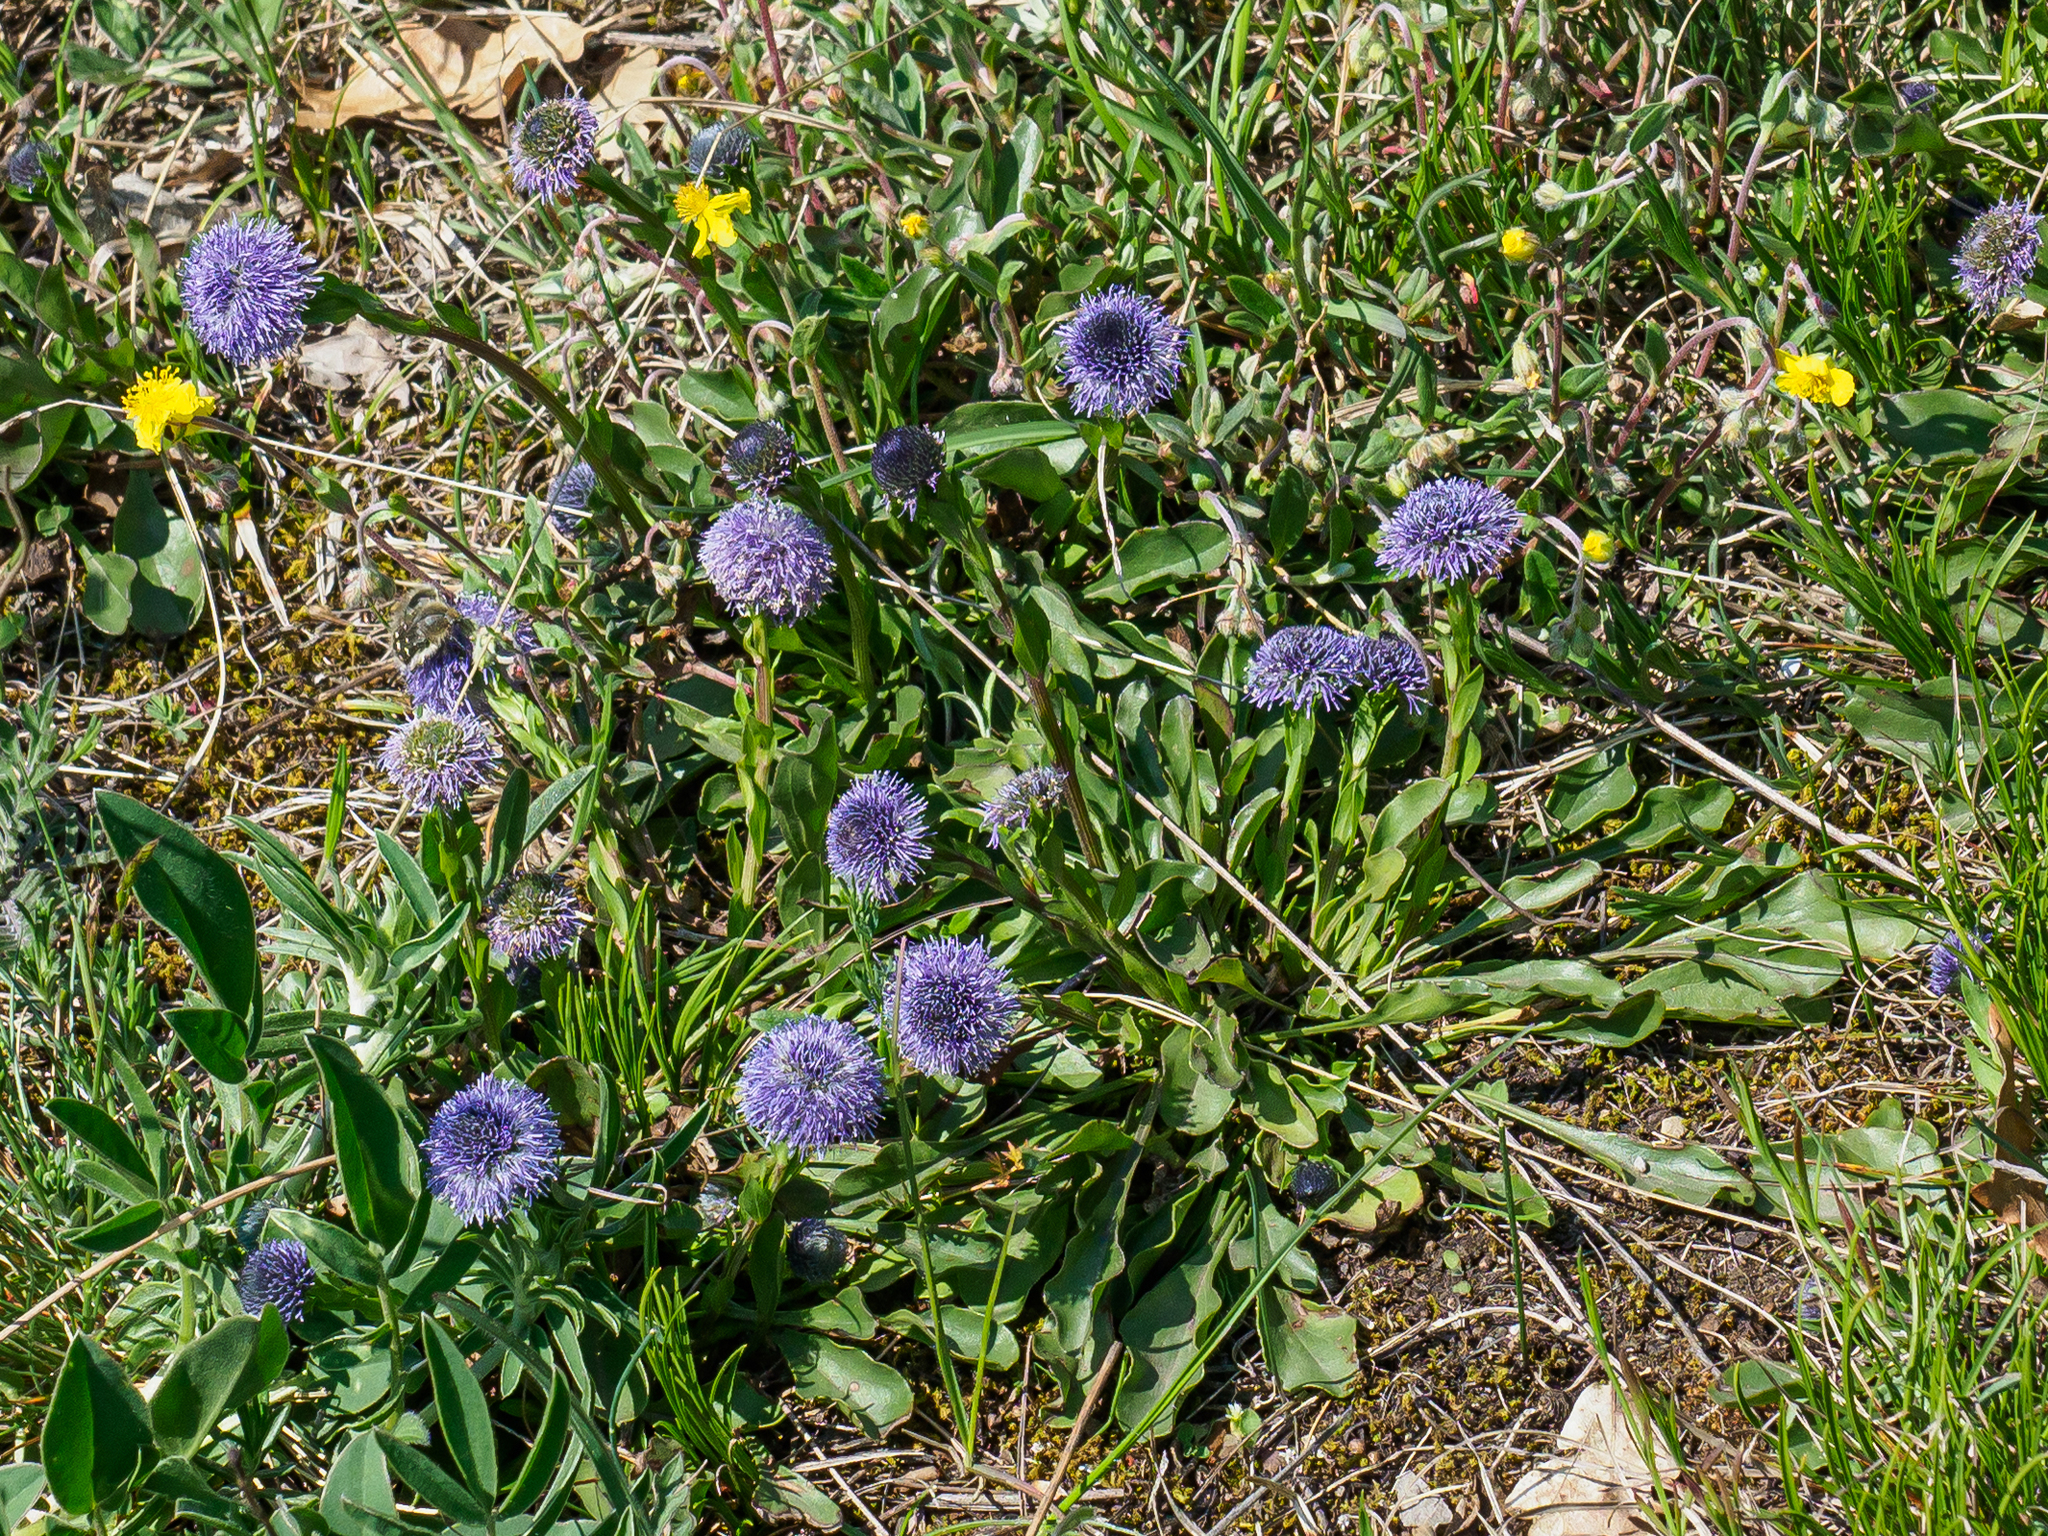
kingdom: Plantae
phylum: Tracheophyta
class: Magnoliopsida
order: Lamiales
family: Plantaginaceae
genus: Globularia
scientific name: Globularia bisnagarica
